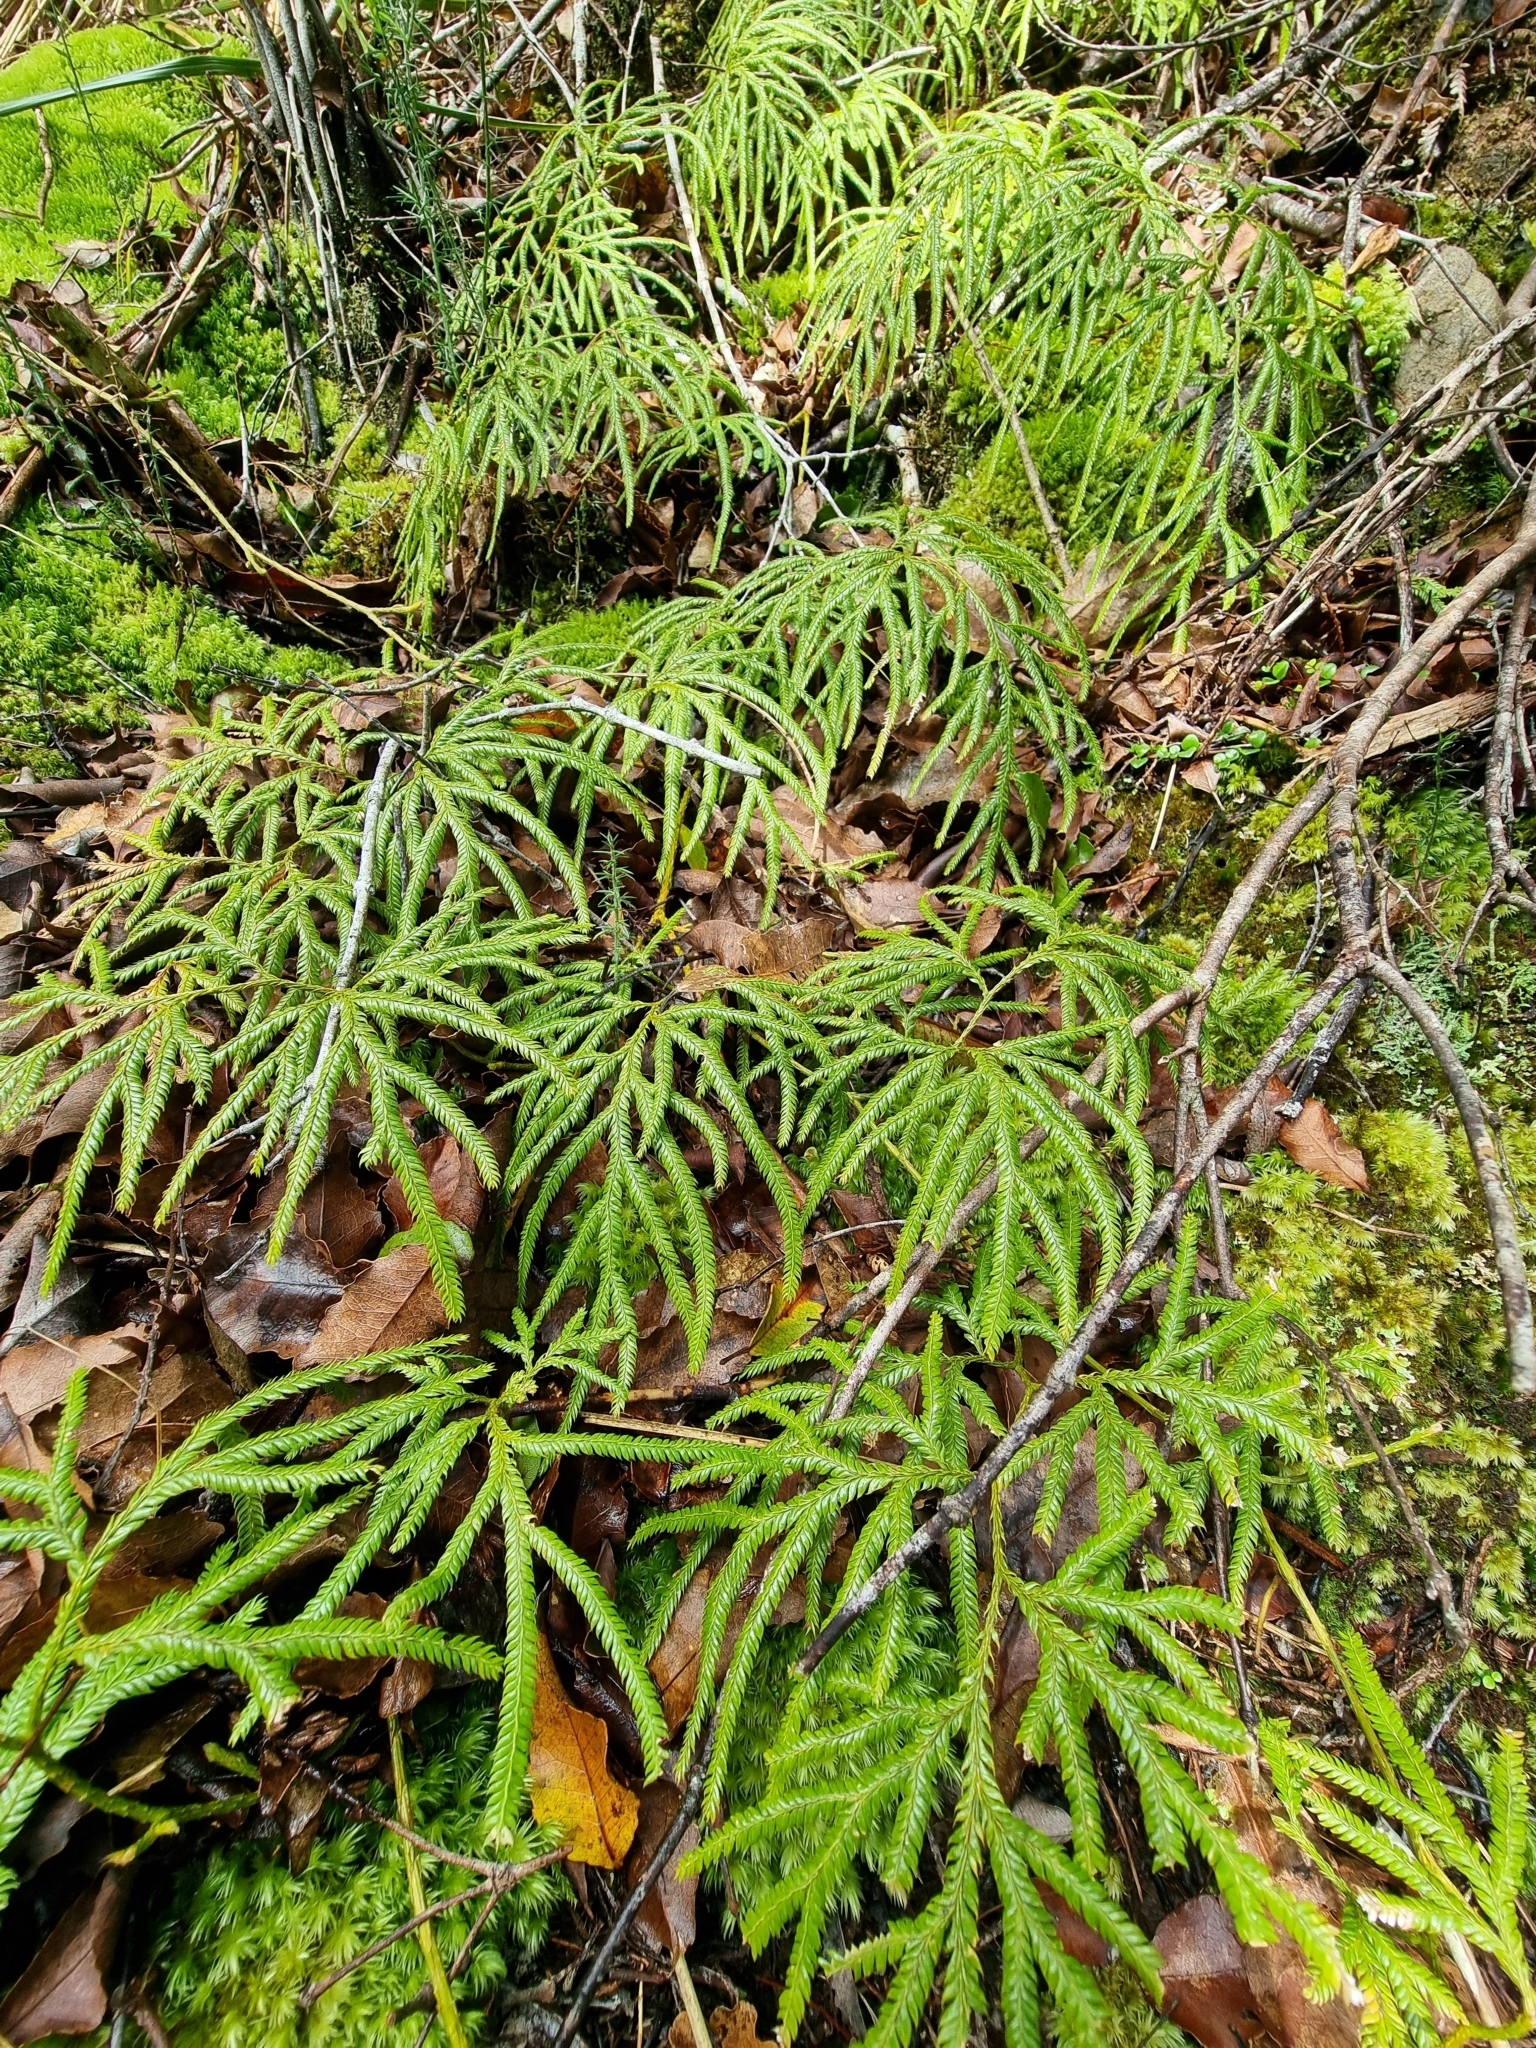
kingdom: Plantae
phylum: Tracheophyta
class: Lycopodiopsida
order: Lycopodiales
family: Lycopodiaceae
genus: Lycopodium
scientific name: Lycopodium volubile
